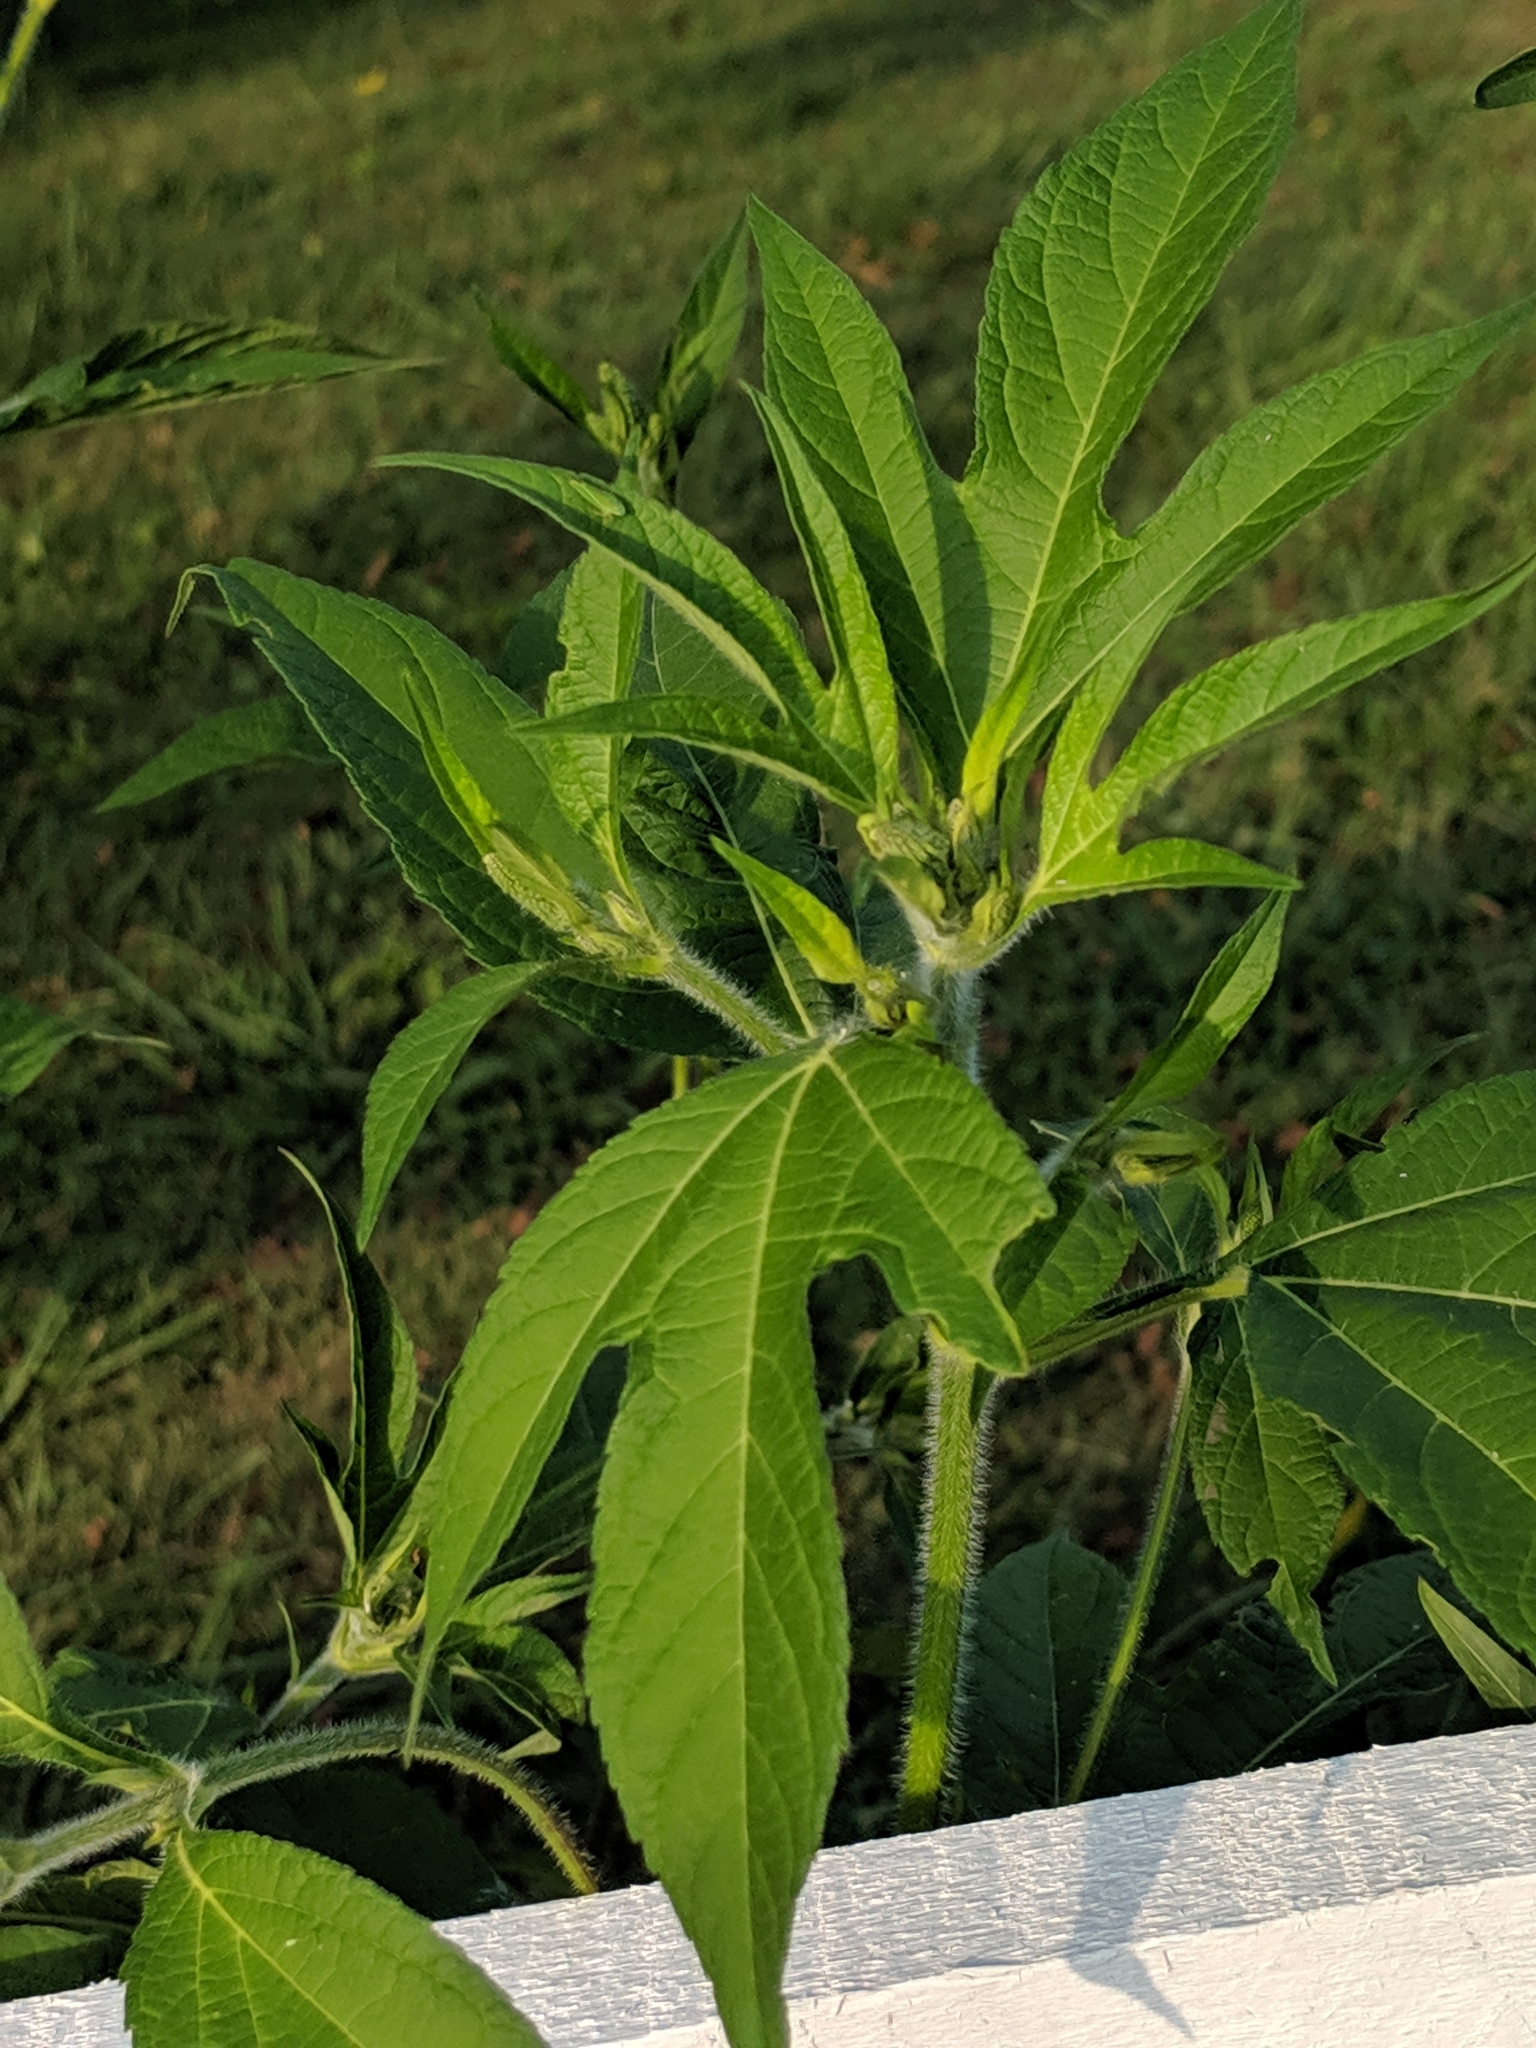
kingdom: Plantae
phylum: Tracheophyta
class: Magnoliopsida
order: Asterales
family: Asteraceae
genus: Ambrosia
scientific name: Ambrosia trifida
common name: Giant ragweed
